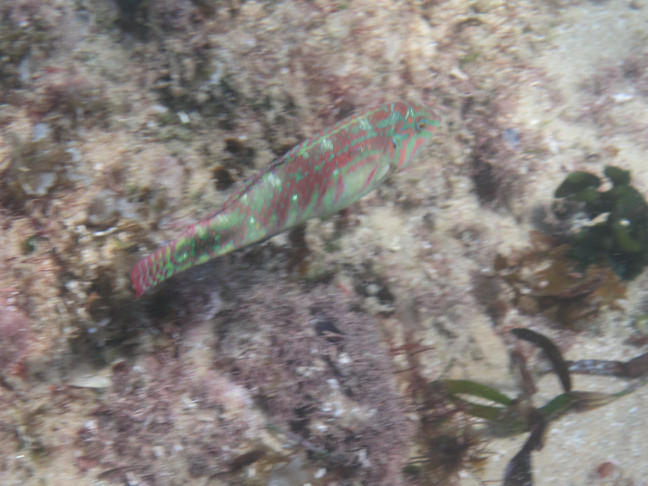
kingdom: Animalia
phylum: Chordata
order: Perciformes
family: Labridae
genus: Halichoeres
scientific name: Halichoeres nebulosus
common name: Clouded wrasse
